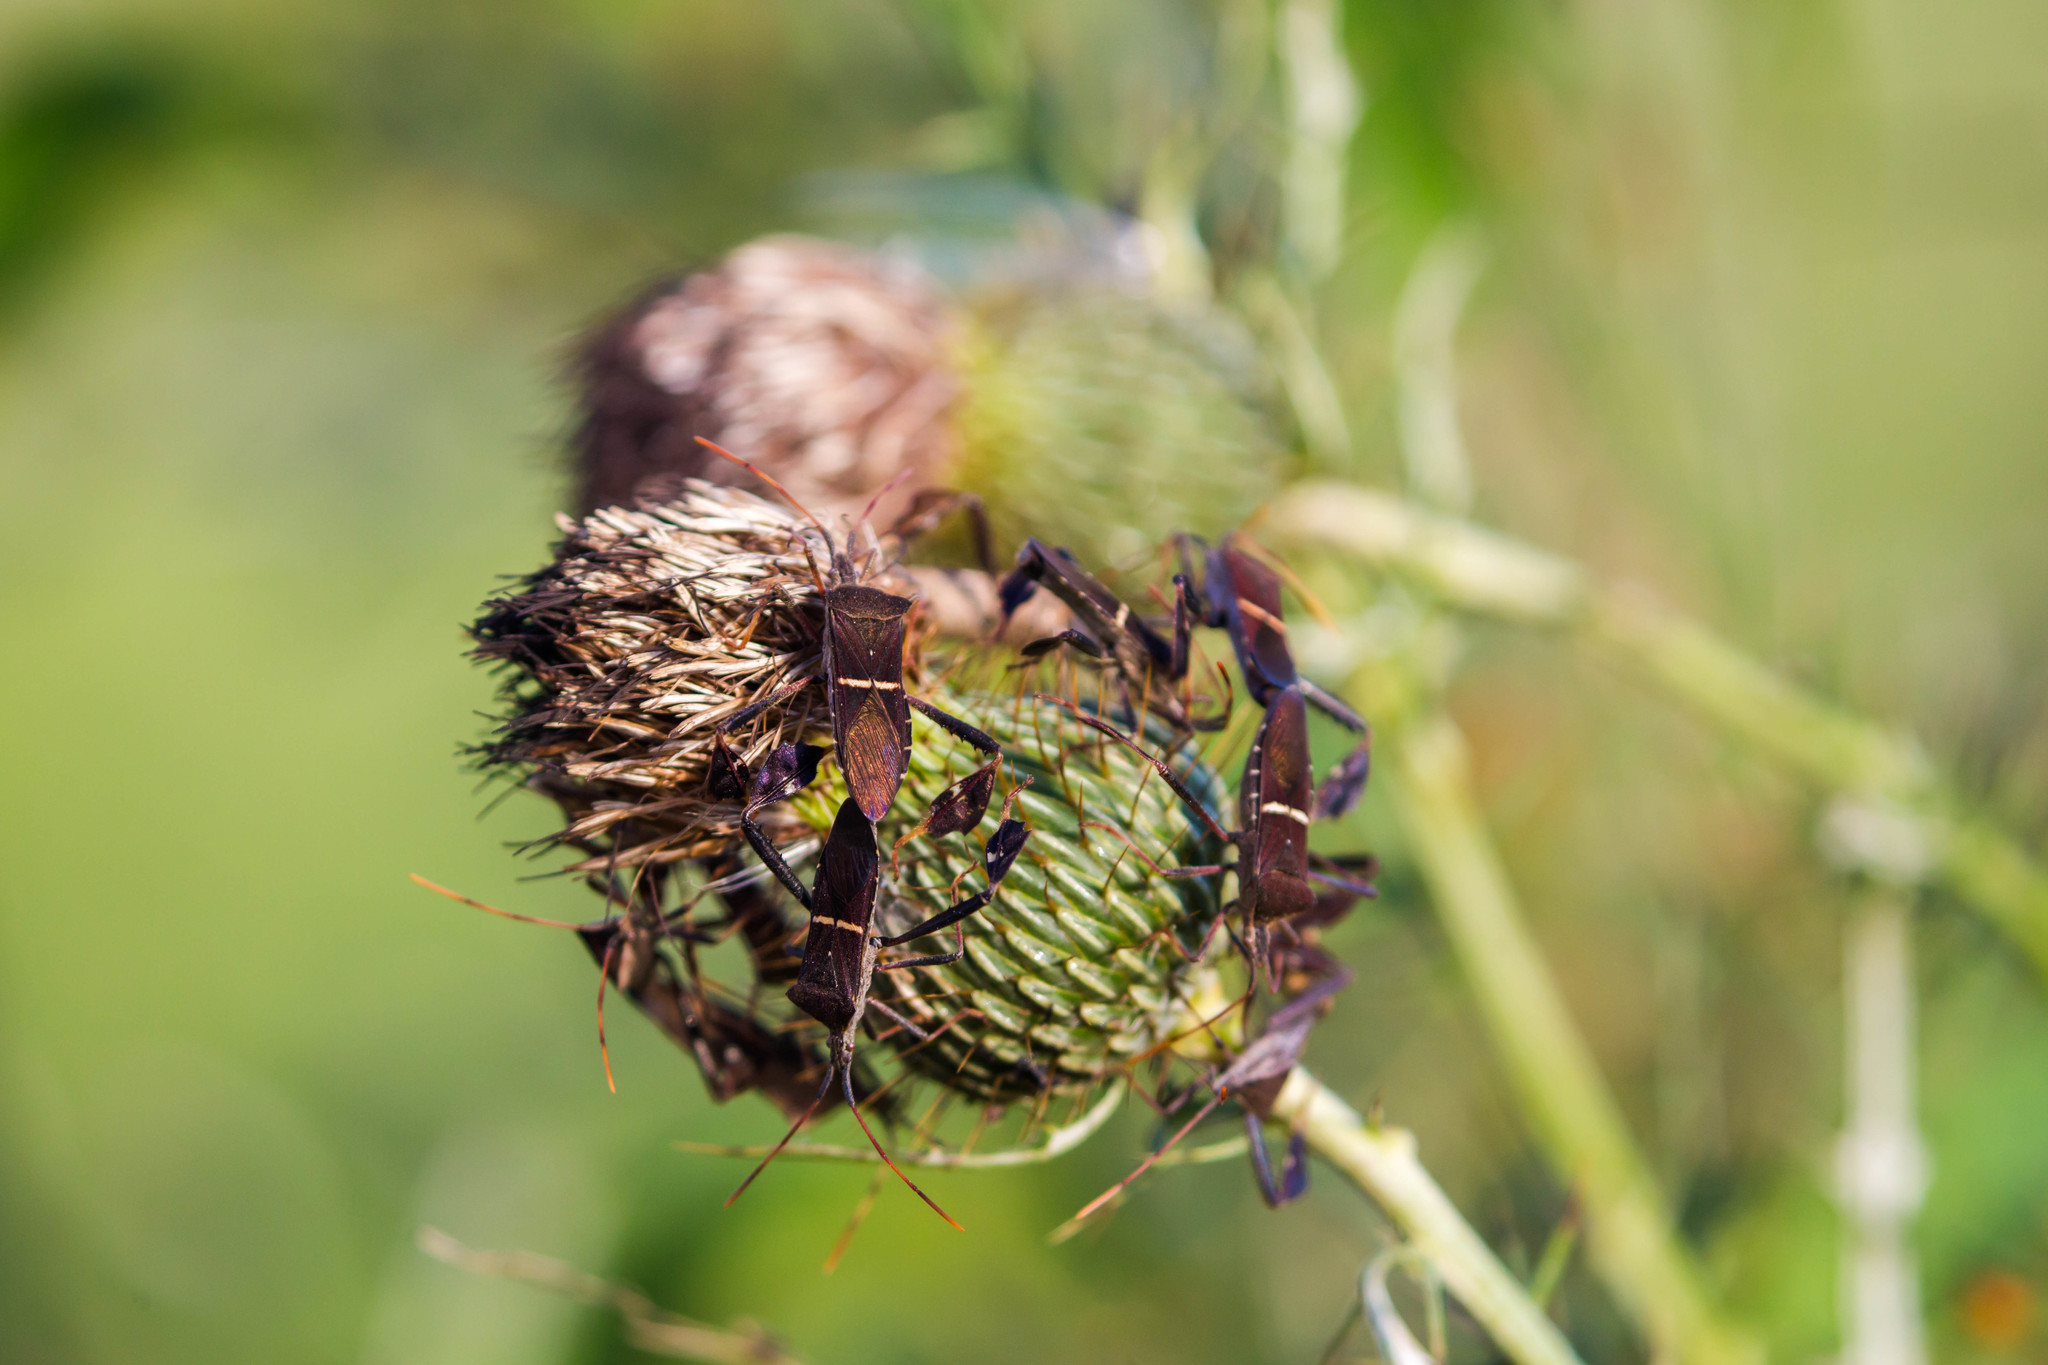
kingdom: Animalia
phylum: Arthropoda
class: Insecta
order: Hemiptera
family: Coreidae
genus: Leptoglossus
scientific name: Leptoglossus phyllopus
